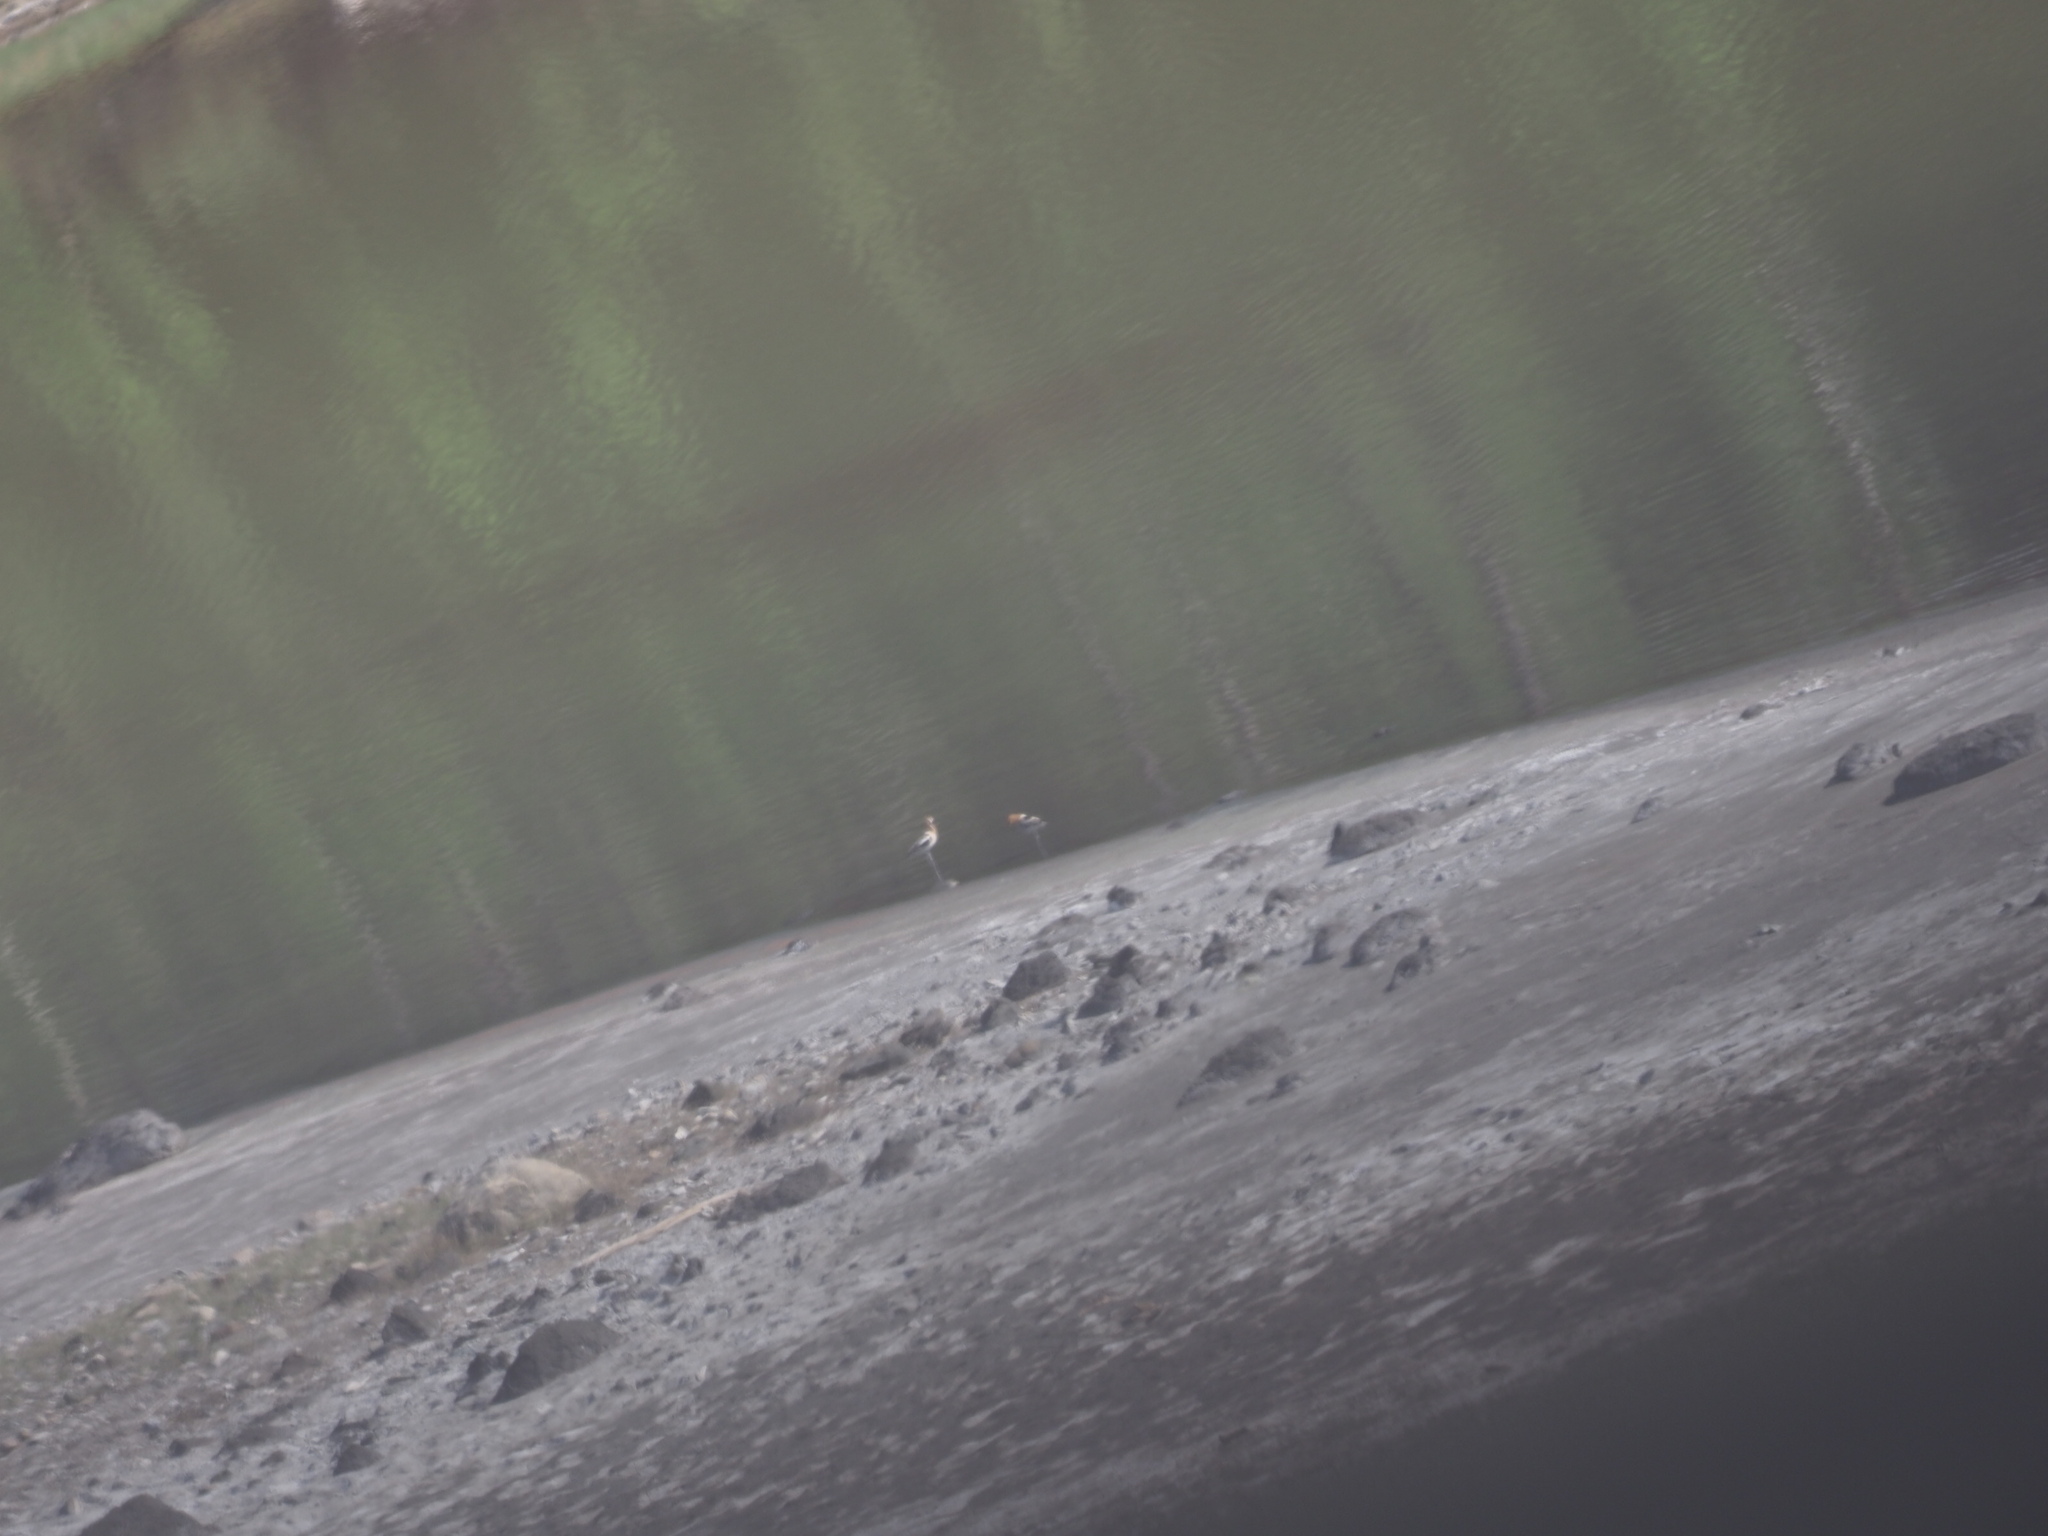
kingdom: Animalia
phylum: Chordata
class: Aves
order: Charadriiformes
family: Recurvirostridae
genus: Recurvirostra
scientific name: Recurvirostra americana
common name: American avocet
